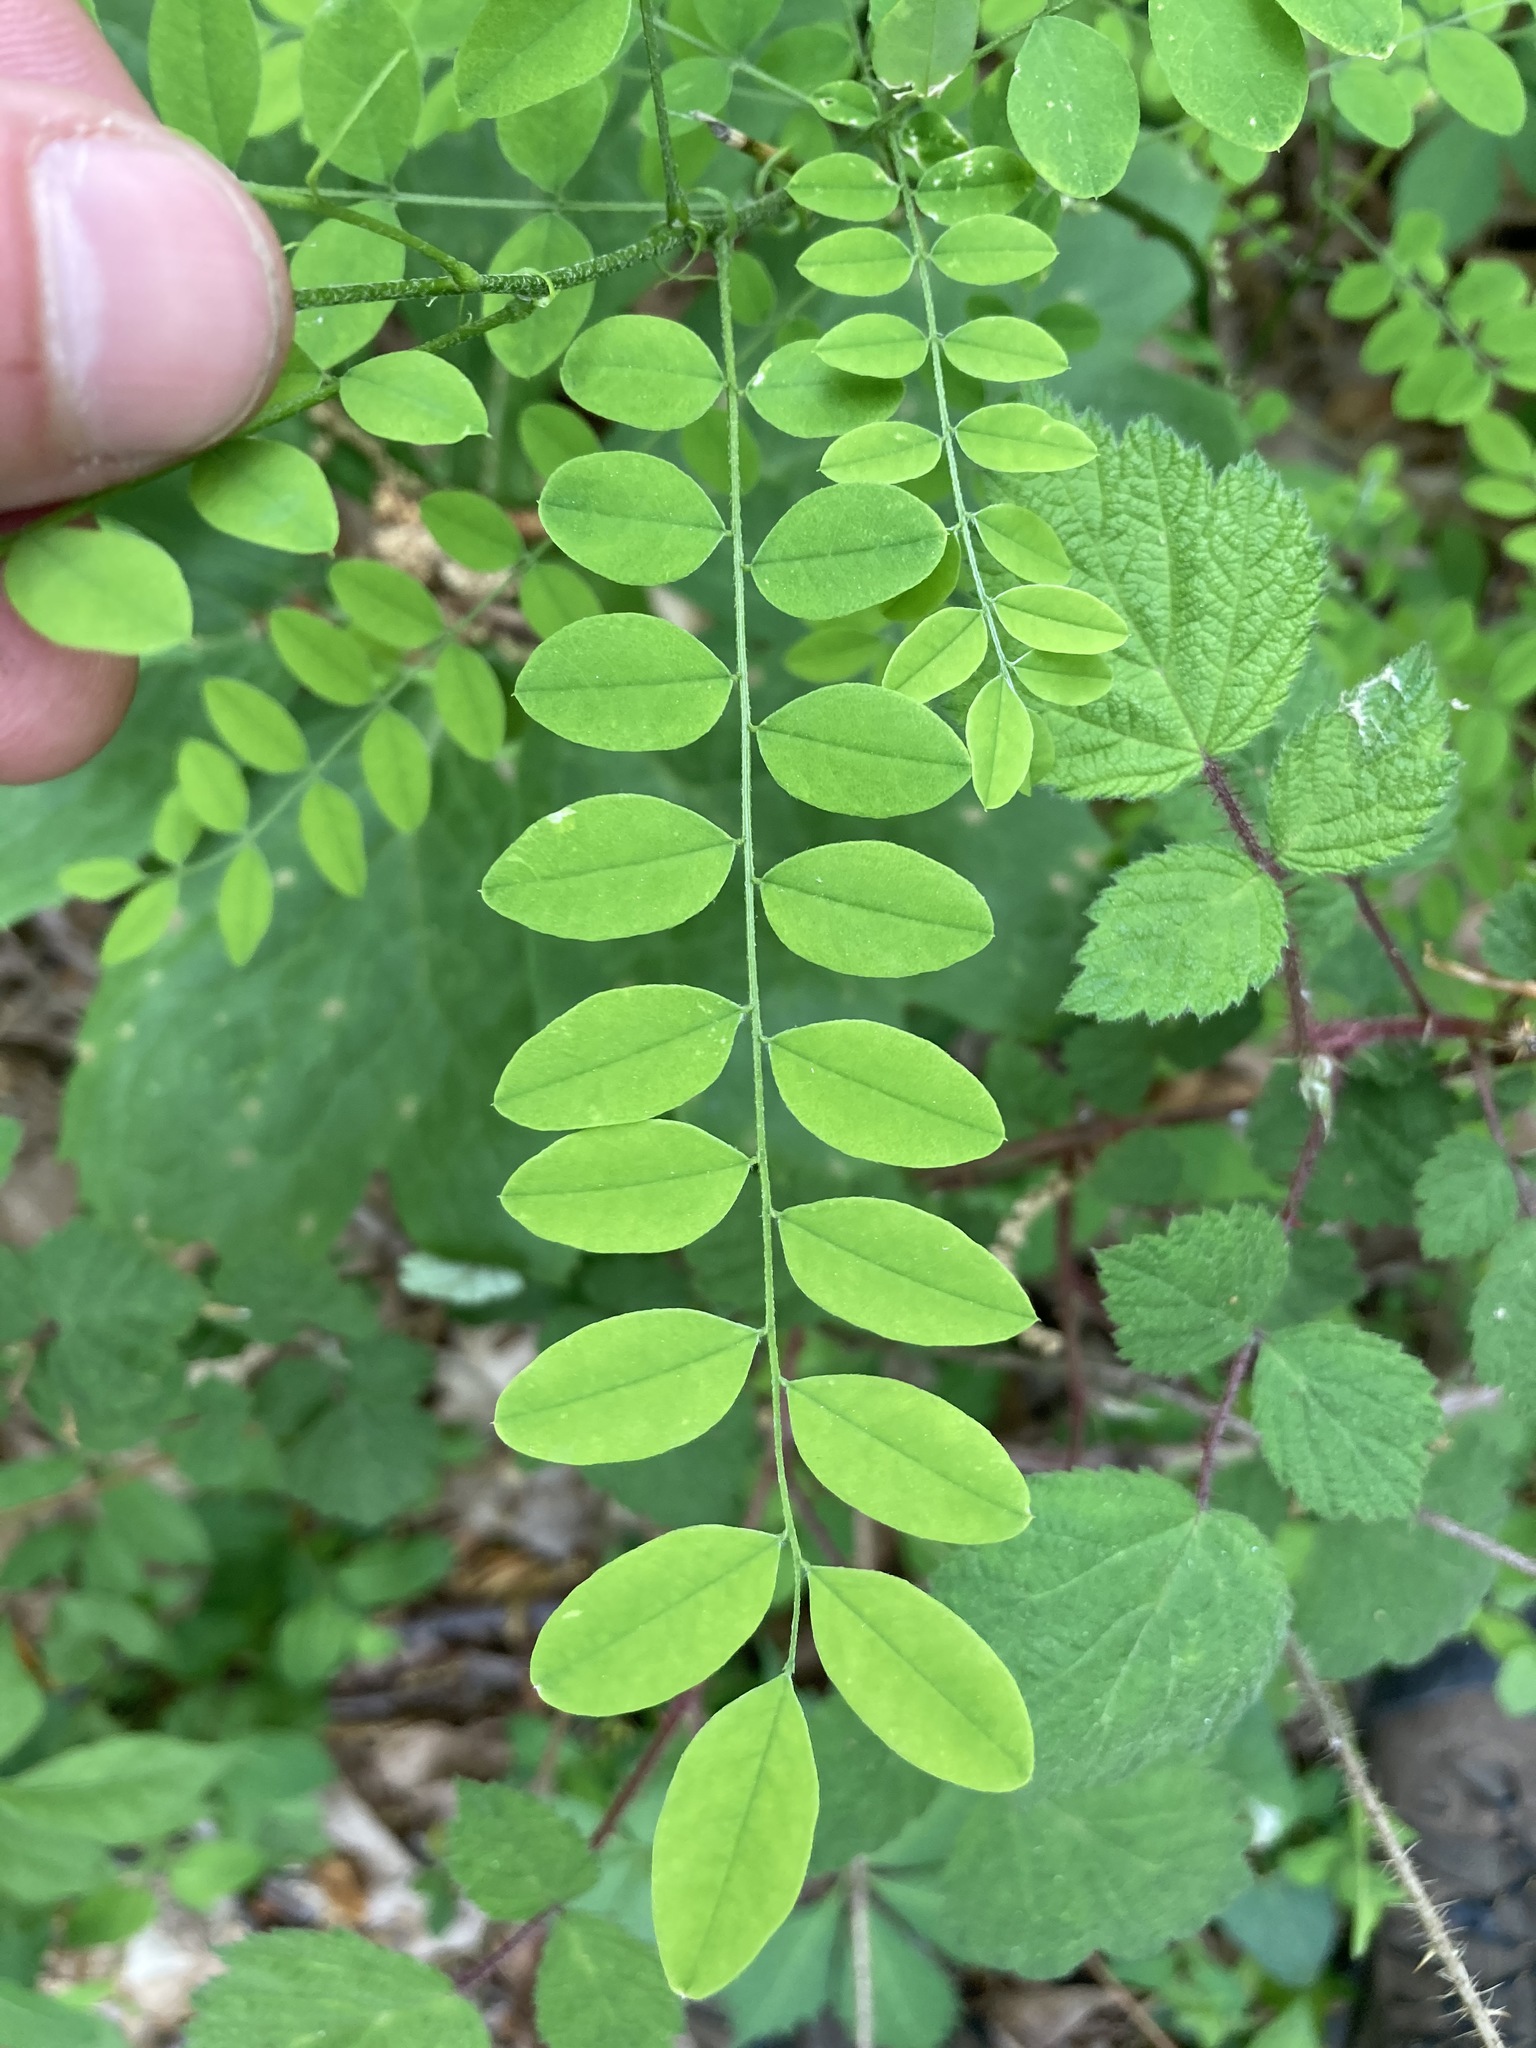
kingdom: Plantae
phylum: Tracheophyta
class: Magnoliopsida
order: Fabales
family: Fabaceae
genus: Robinia
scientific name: Robinia pseudoacacia
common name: Black locust
